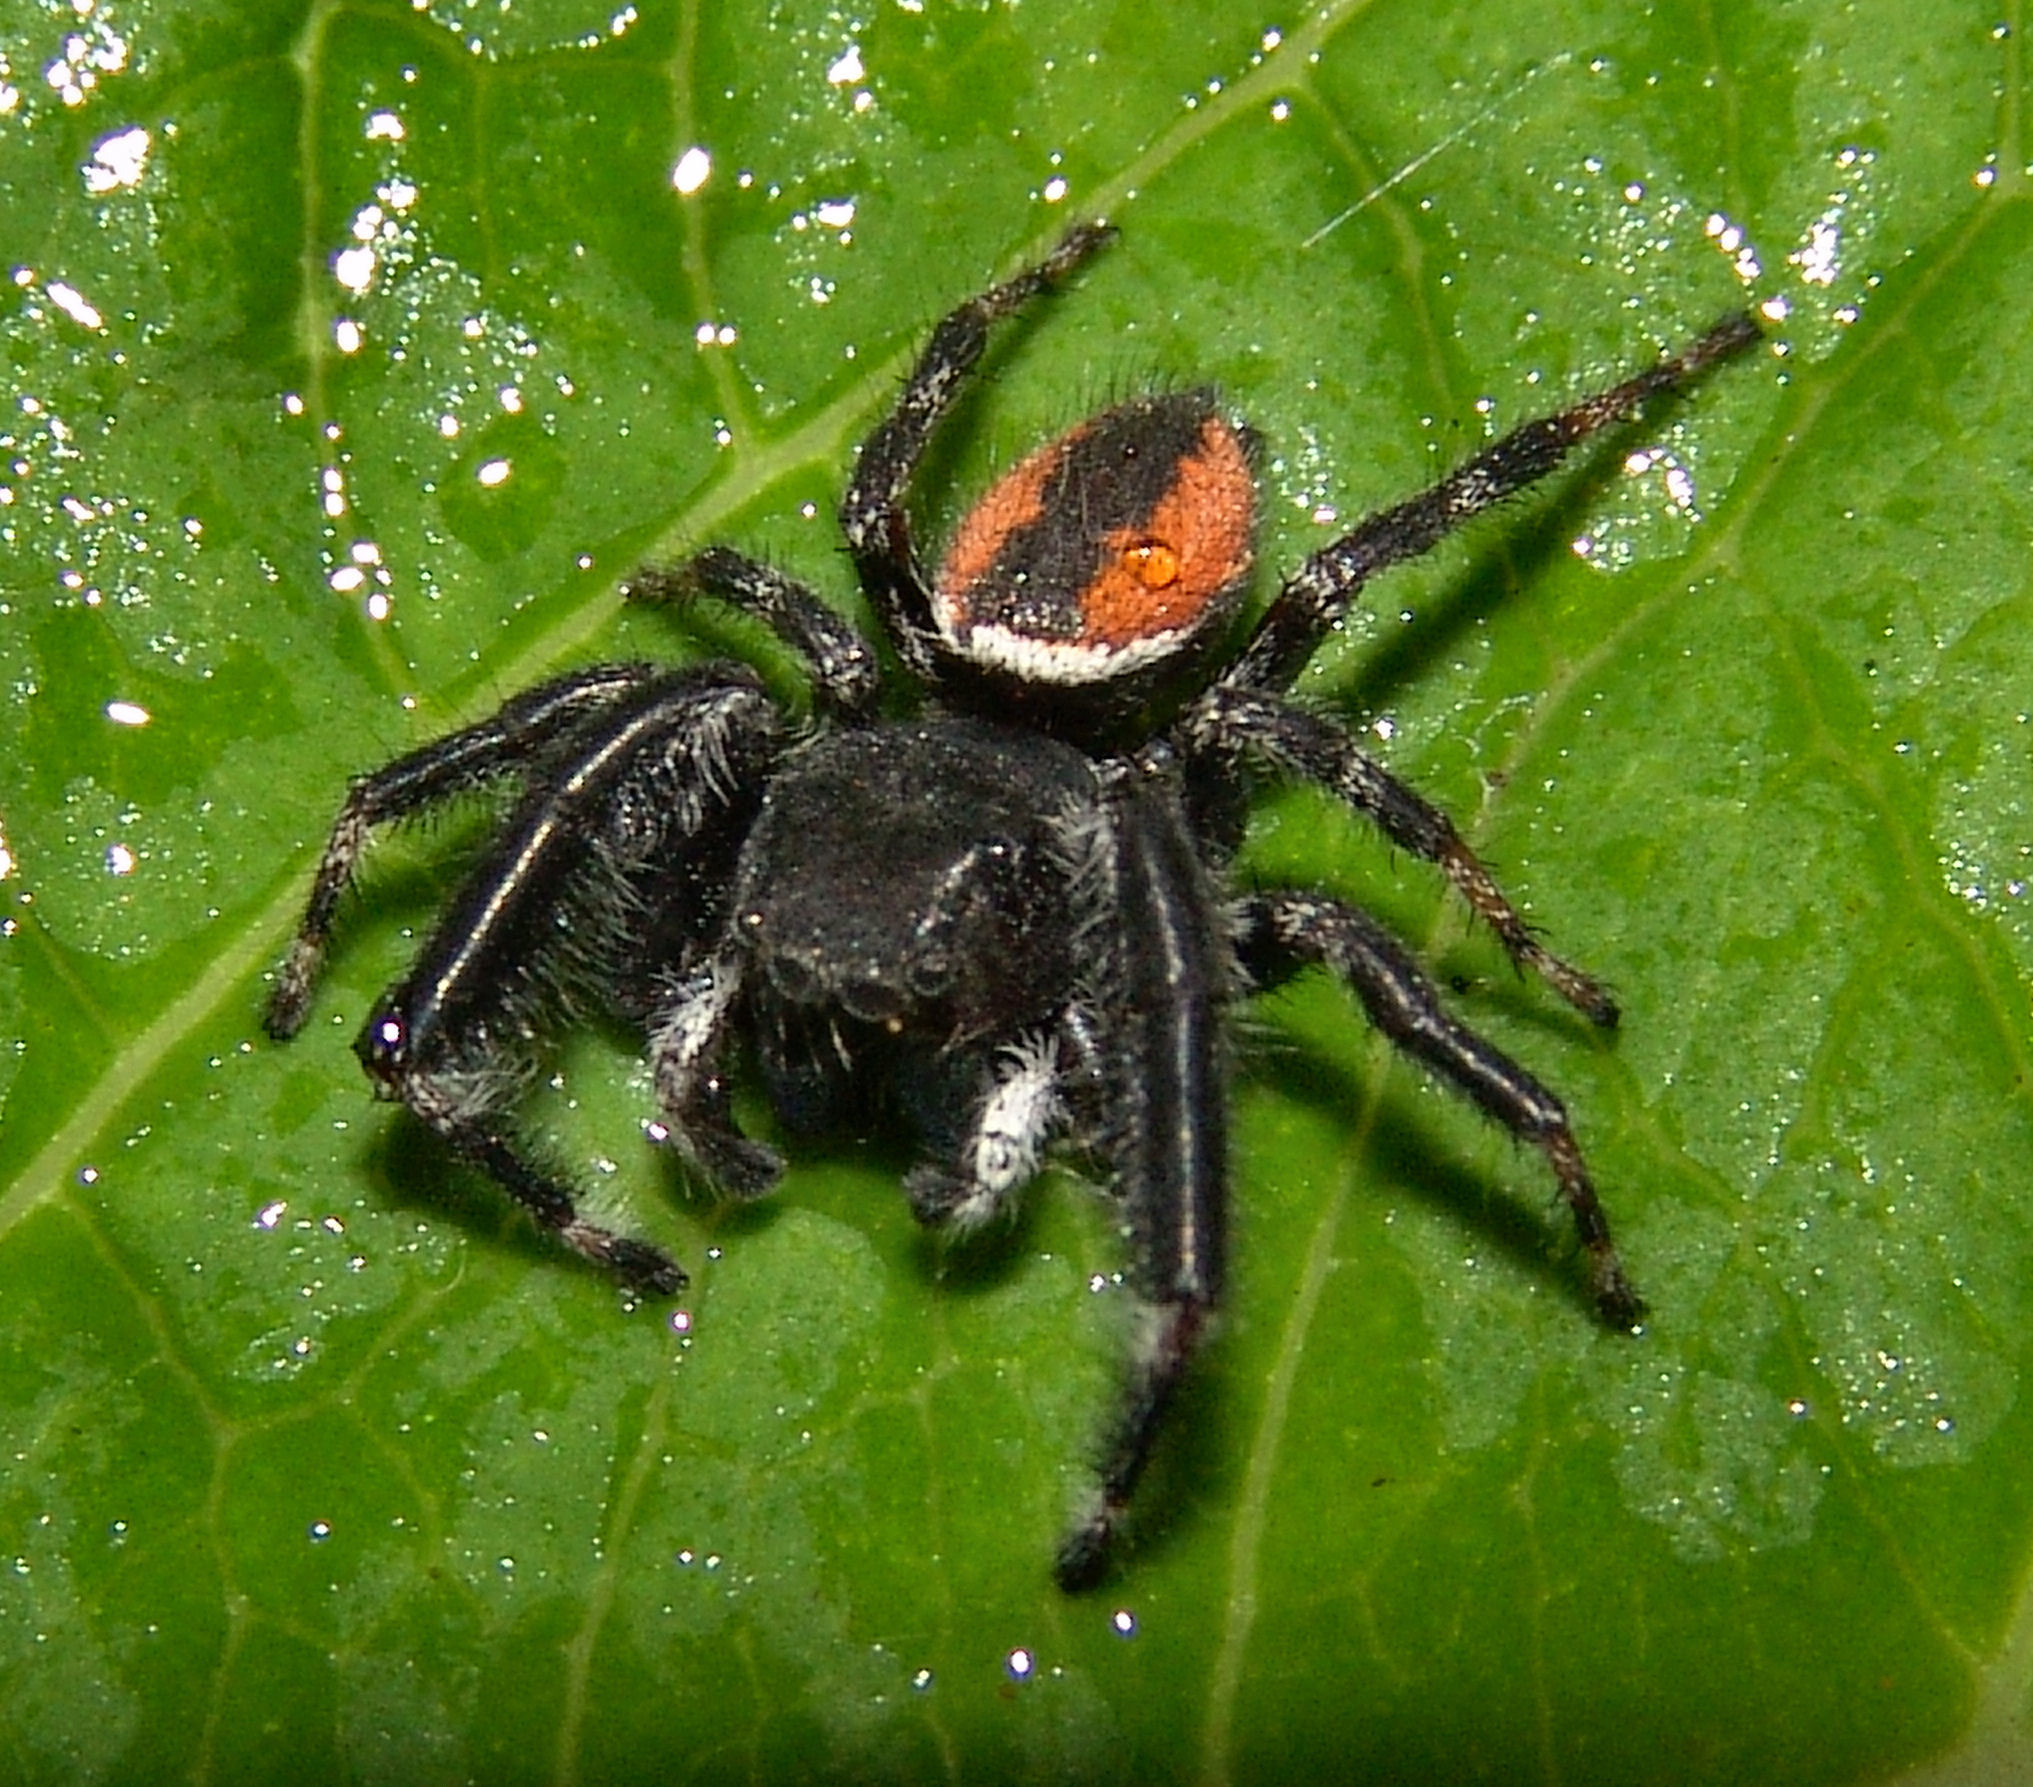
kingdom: Animalia
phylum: Arthropoda
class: Arachnida
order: Araneae
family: Salticidae
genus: Phidippus
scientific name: Phidippus clarus
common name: Brilliant jumping spider
